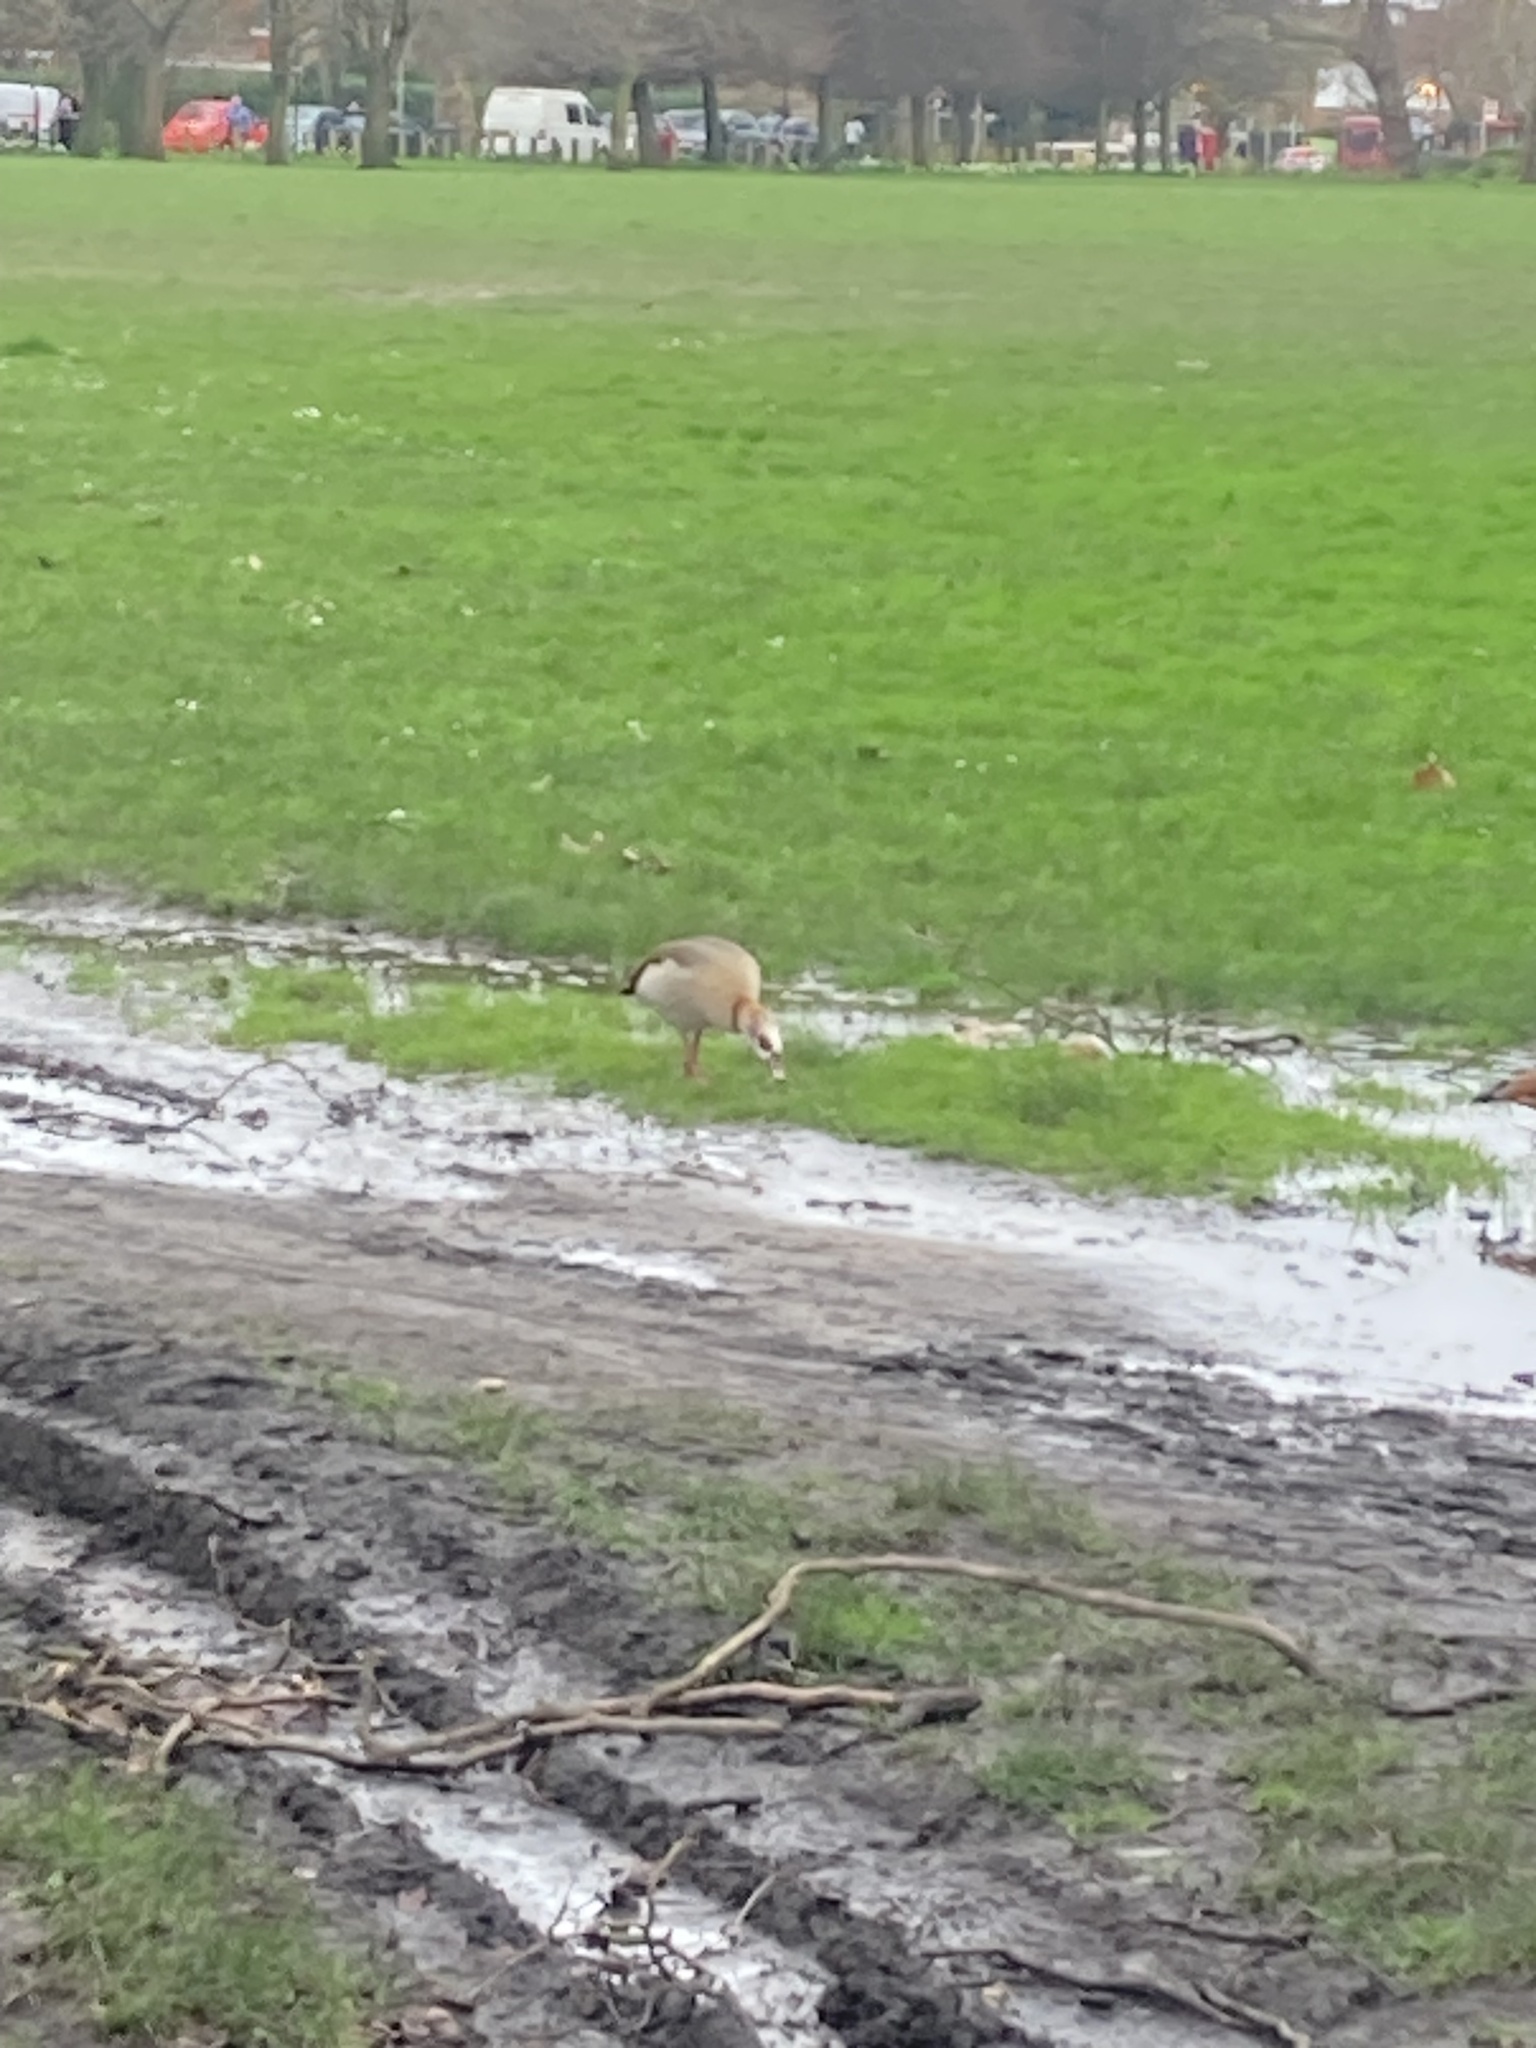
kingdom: Animalia
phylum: Chordata
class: Aves
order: Anseriformes
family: Anatidae
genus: Alopochen
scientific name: Alopochen aegyptiaca
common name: Egyptian goose
